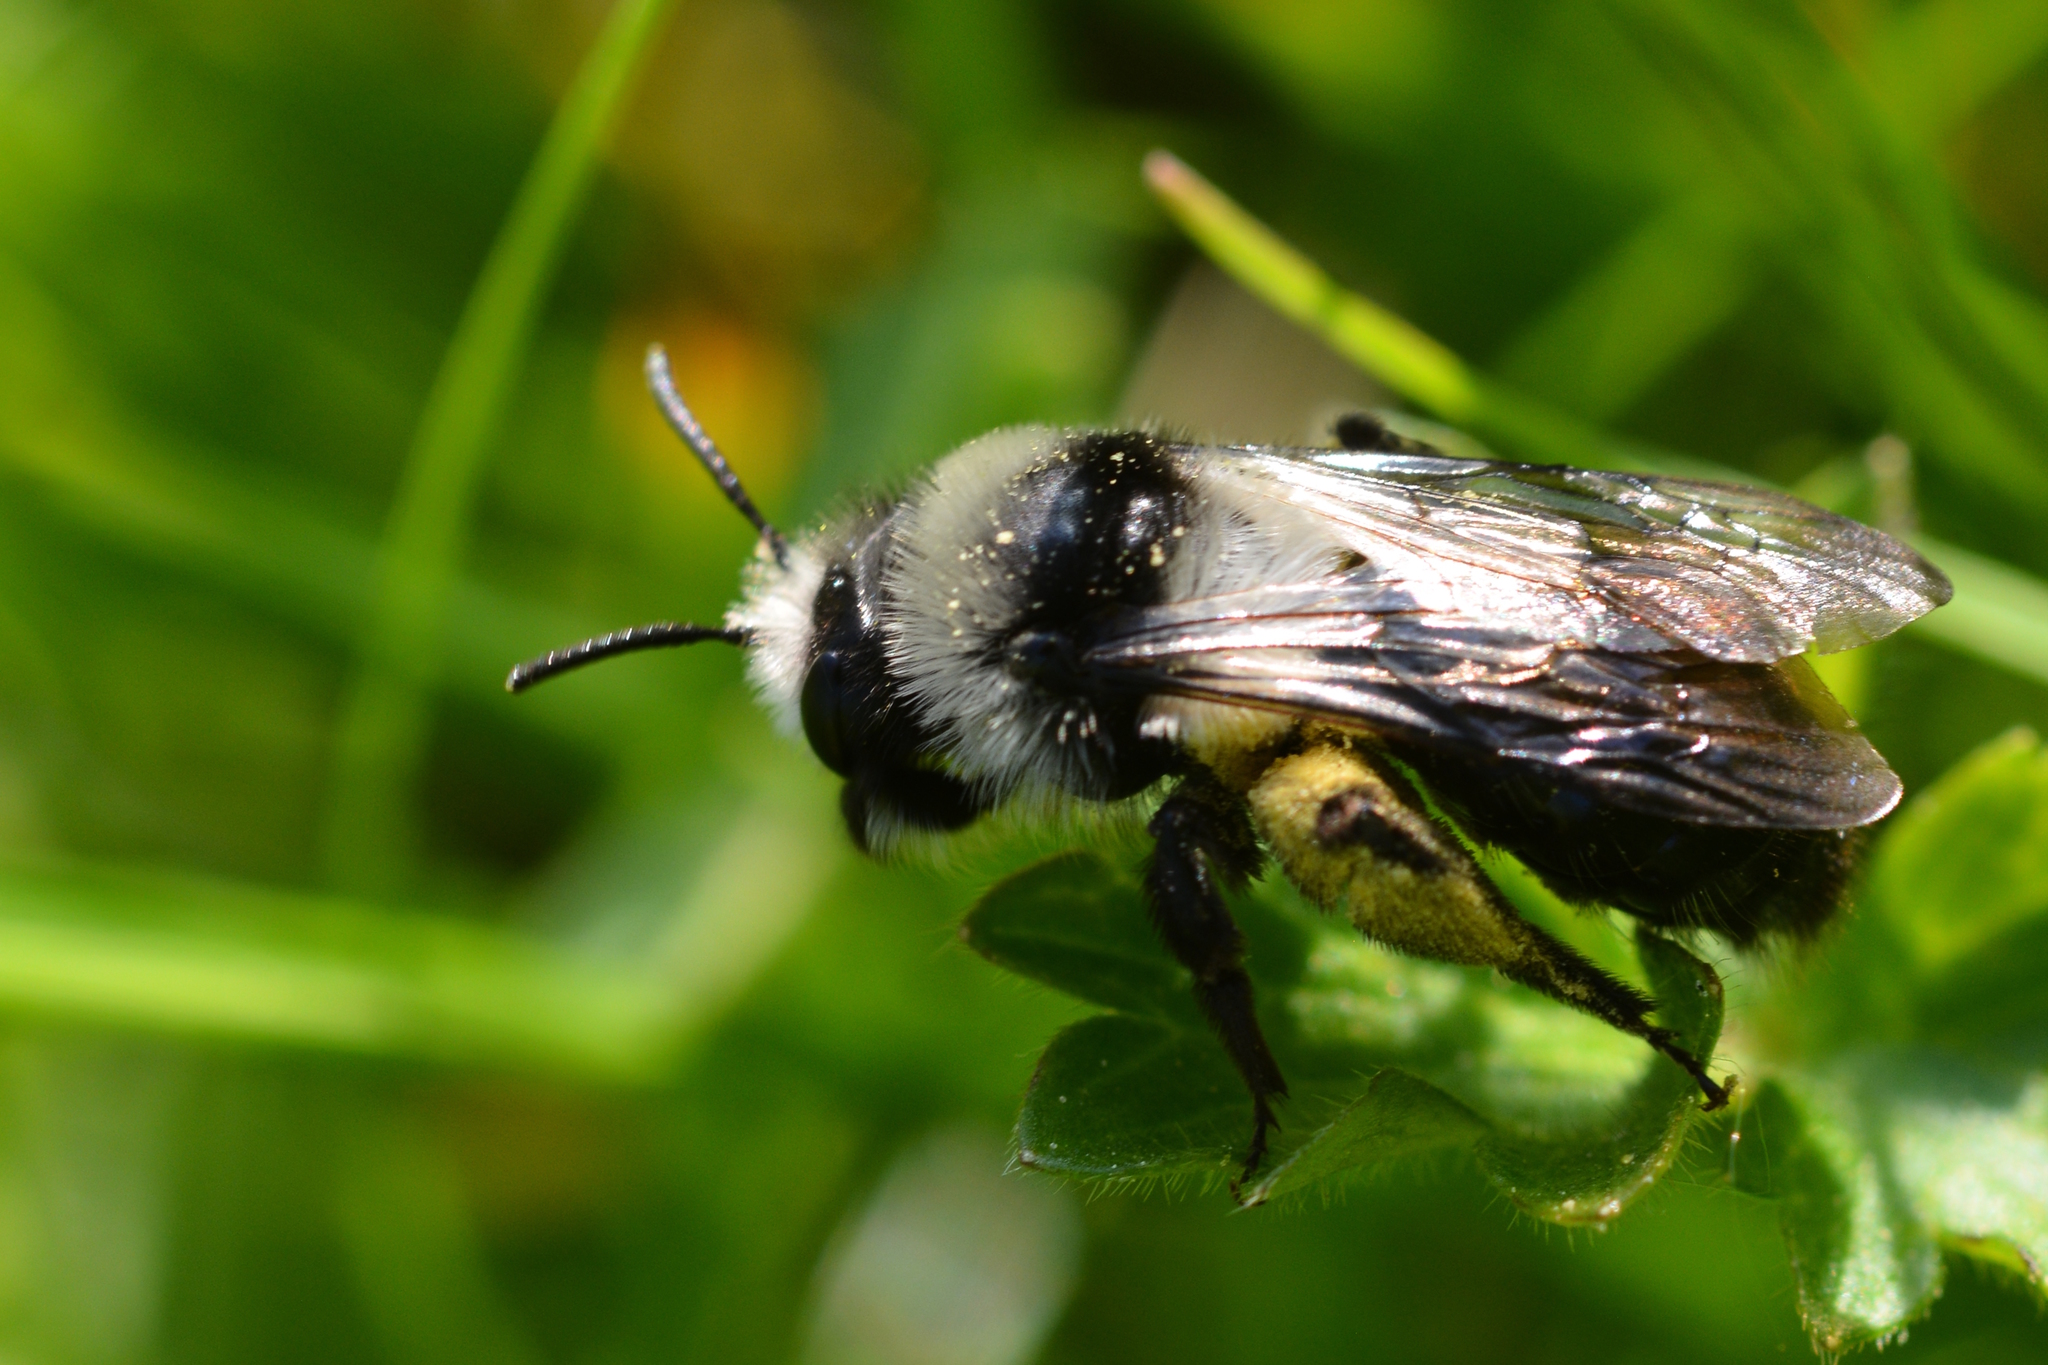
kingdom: Animalia
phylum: Arthropoda
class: Insecta
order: Hymenoptera
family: Andrenidae
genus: Andrena
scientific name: Andrena cineraria
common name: Ashy mining bee
